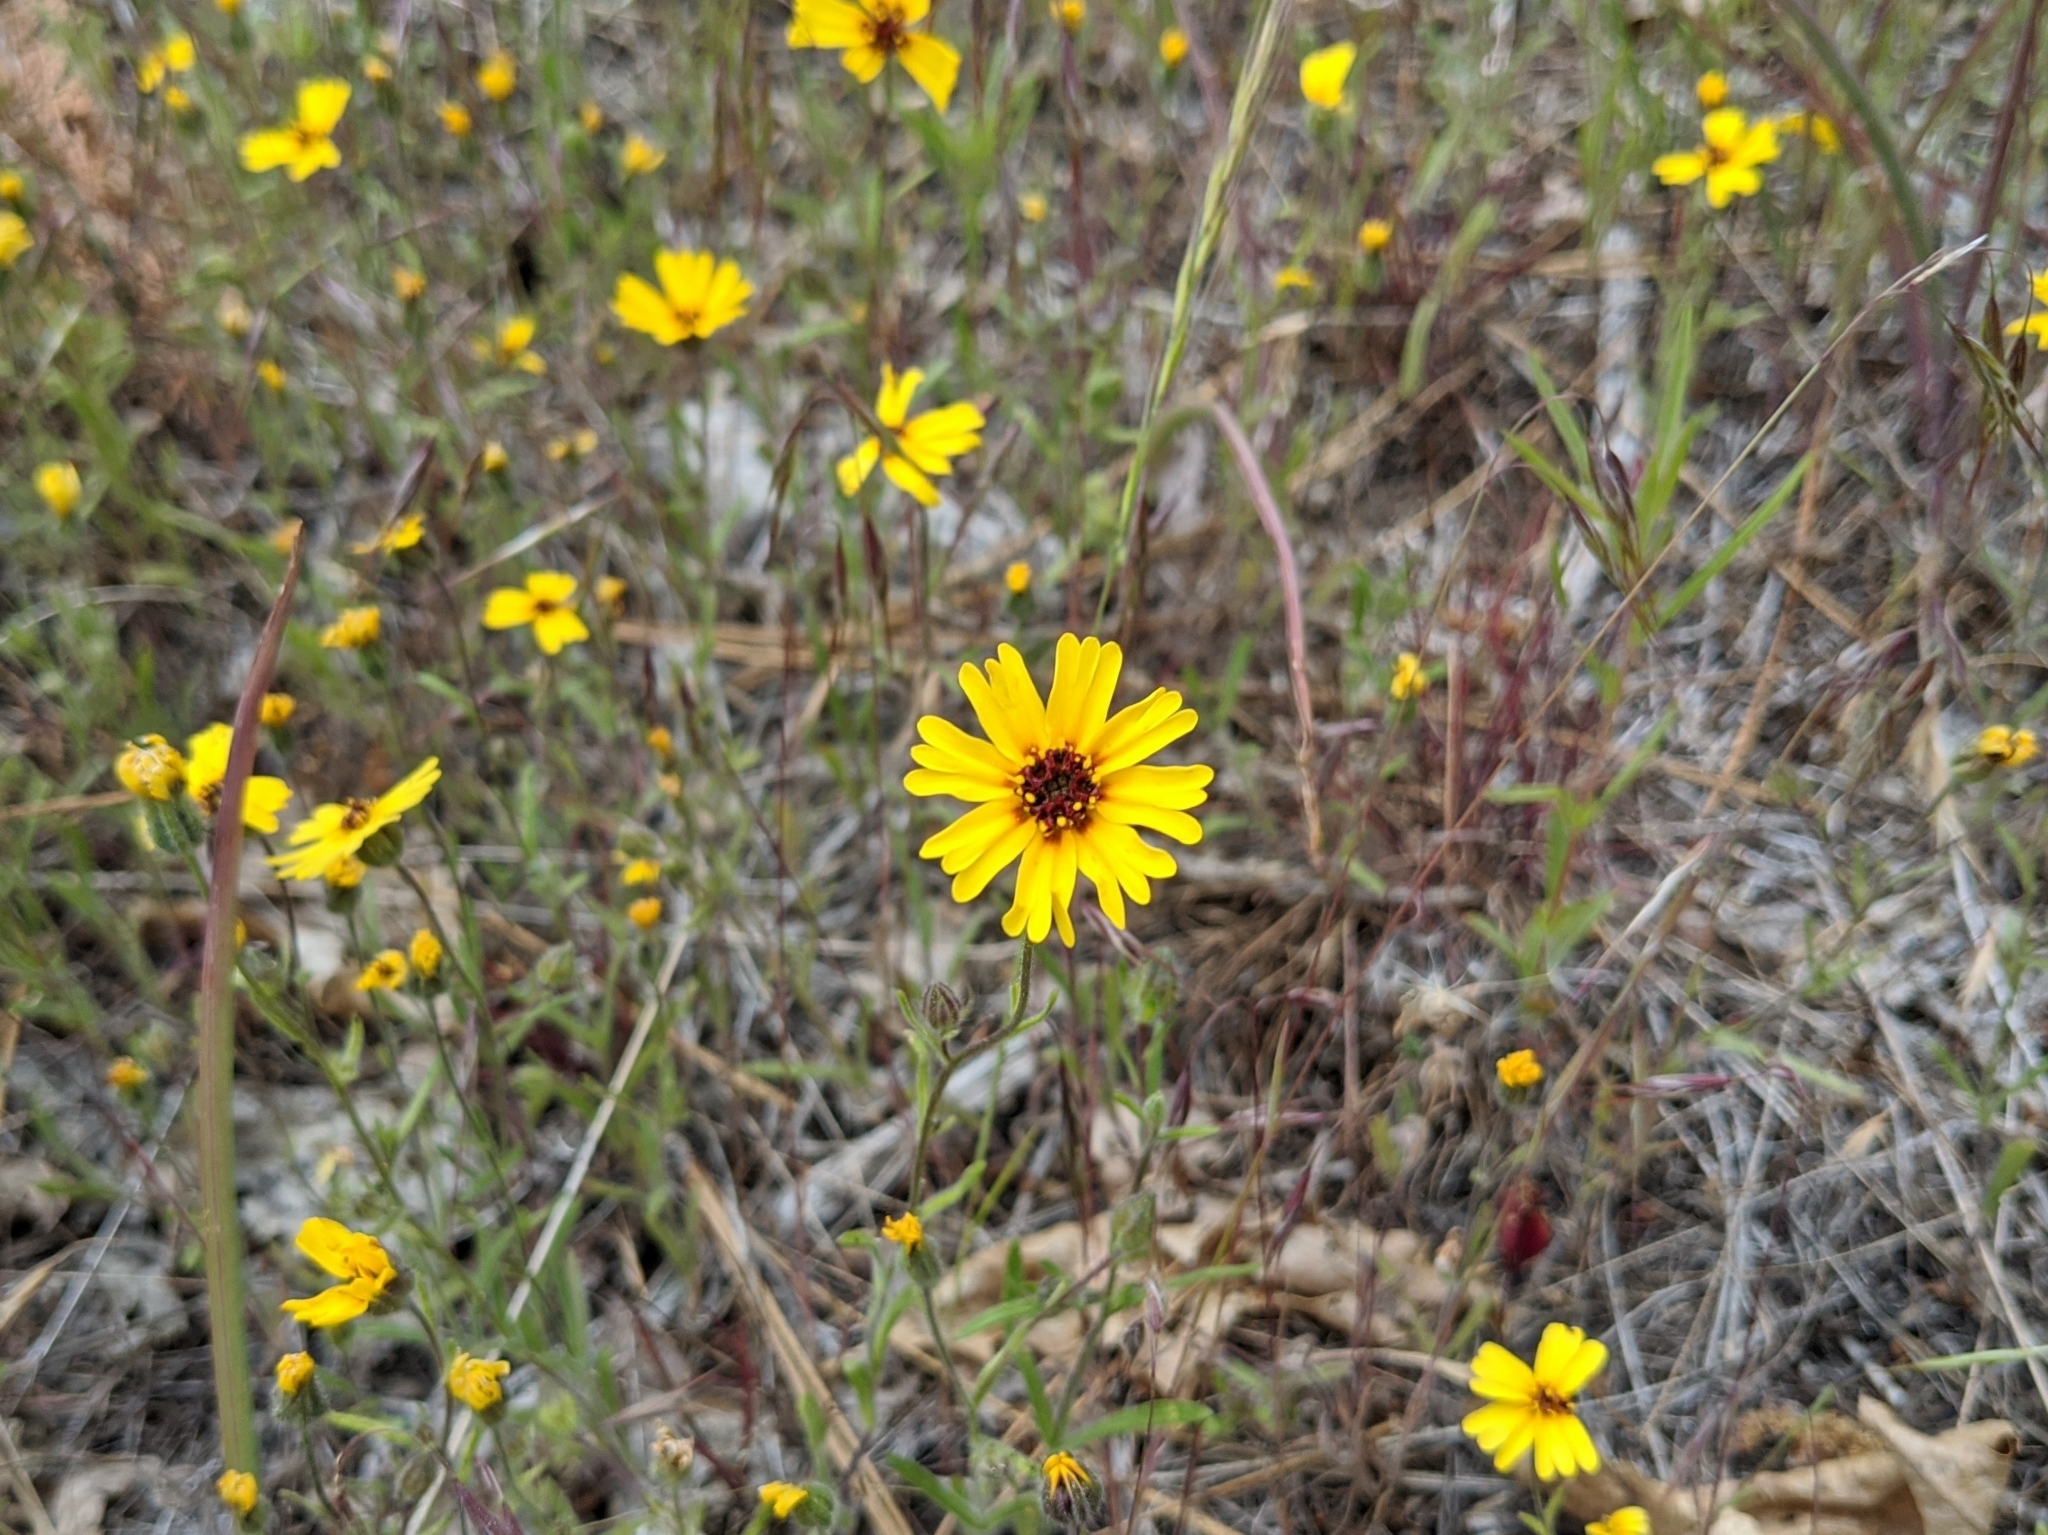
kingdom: Plantae
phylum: Tracheophyta
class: Magnoliopsida
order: Asterales
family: Asteraceae
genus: Madia
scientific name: Madia elegans
